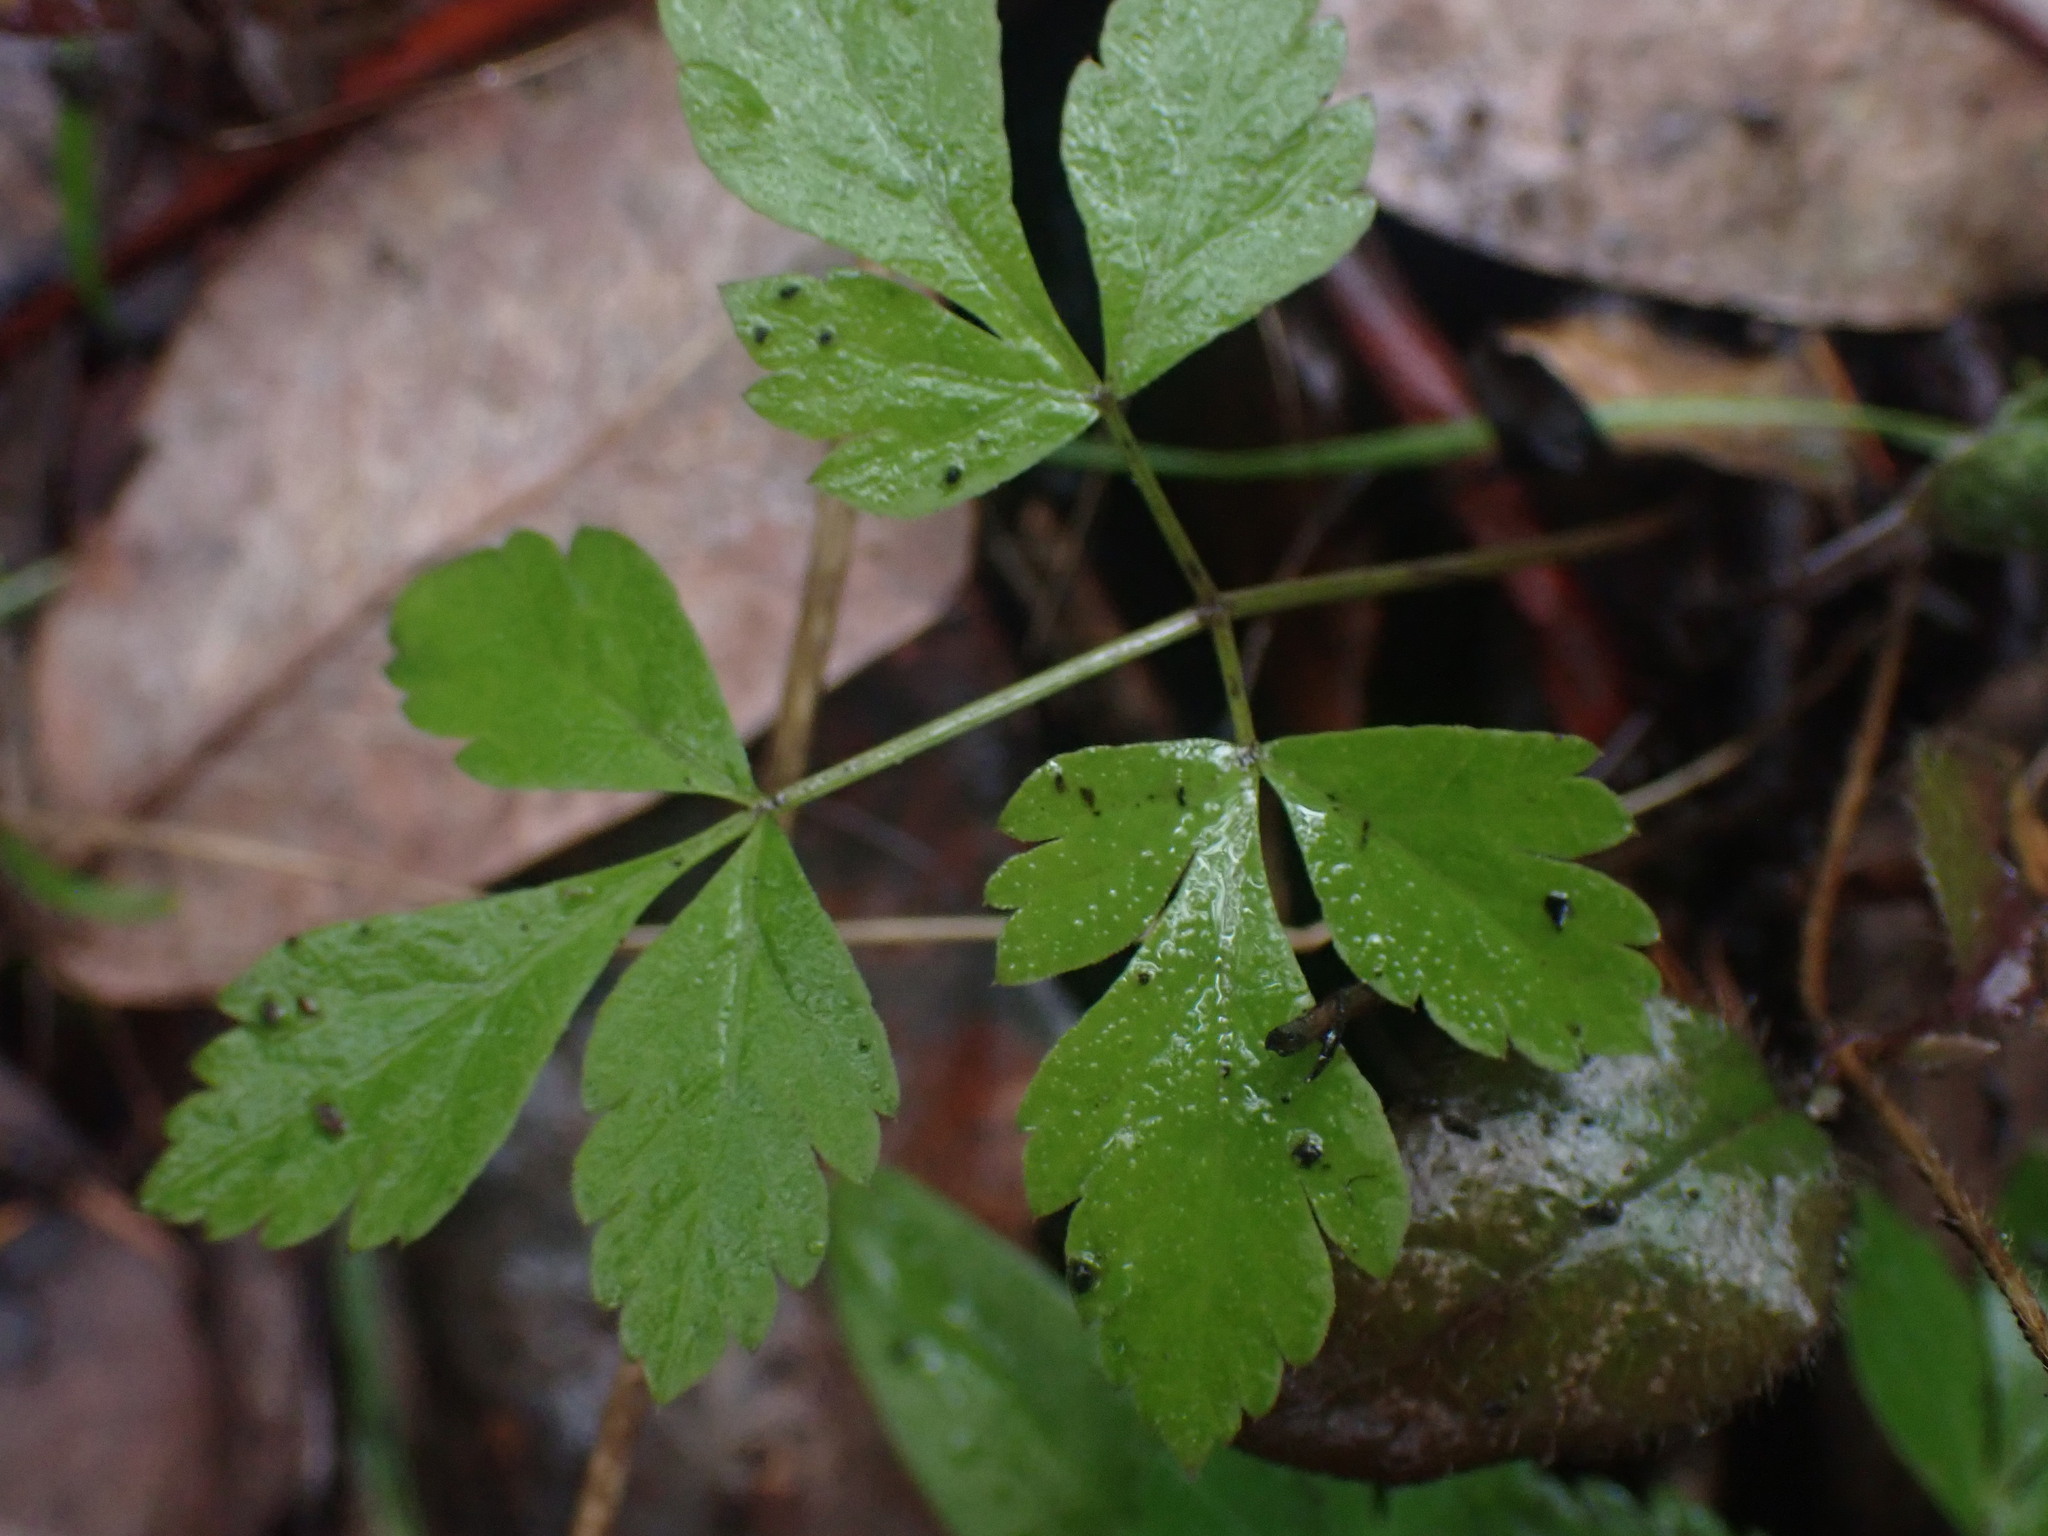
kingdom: Plantae
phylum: Tracheophyta
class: Magnoliopsida
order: Apiales
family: Apiaceae
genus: Osmorhiza
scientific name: Osmorhiza berteroi
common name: Mountain sweet cicely
